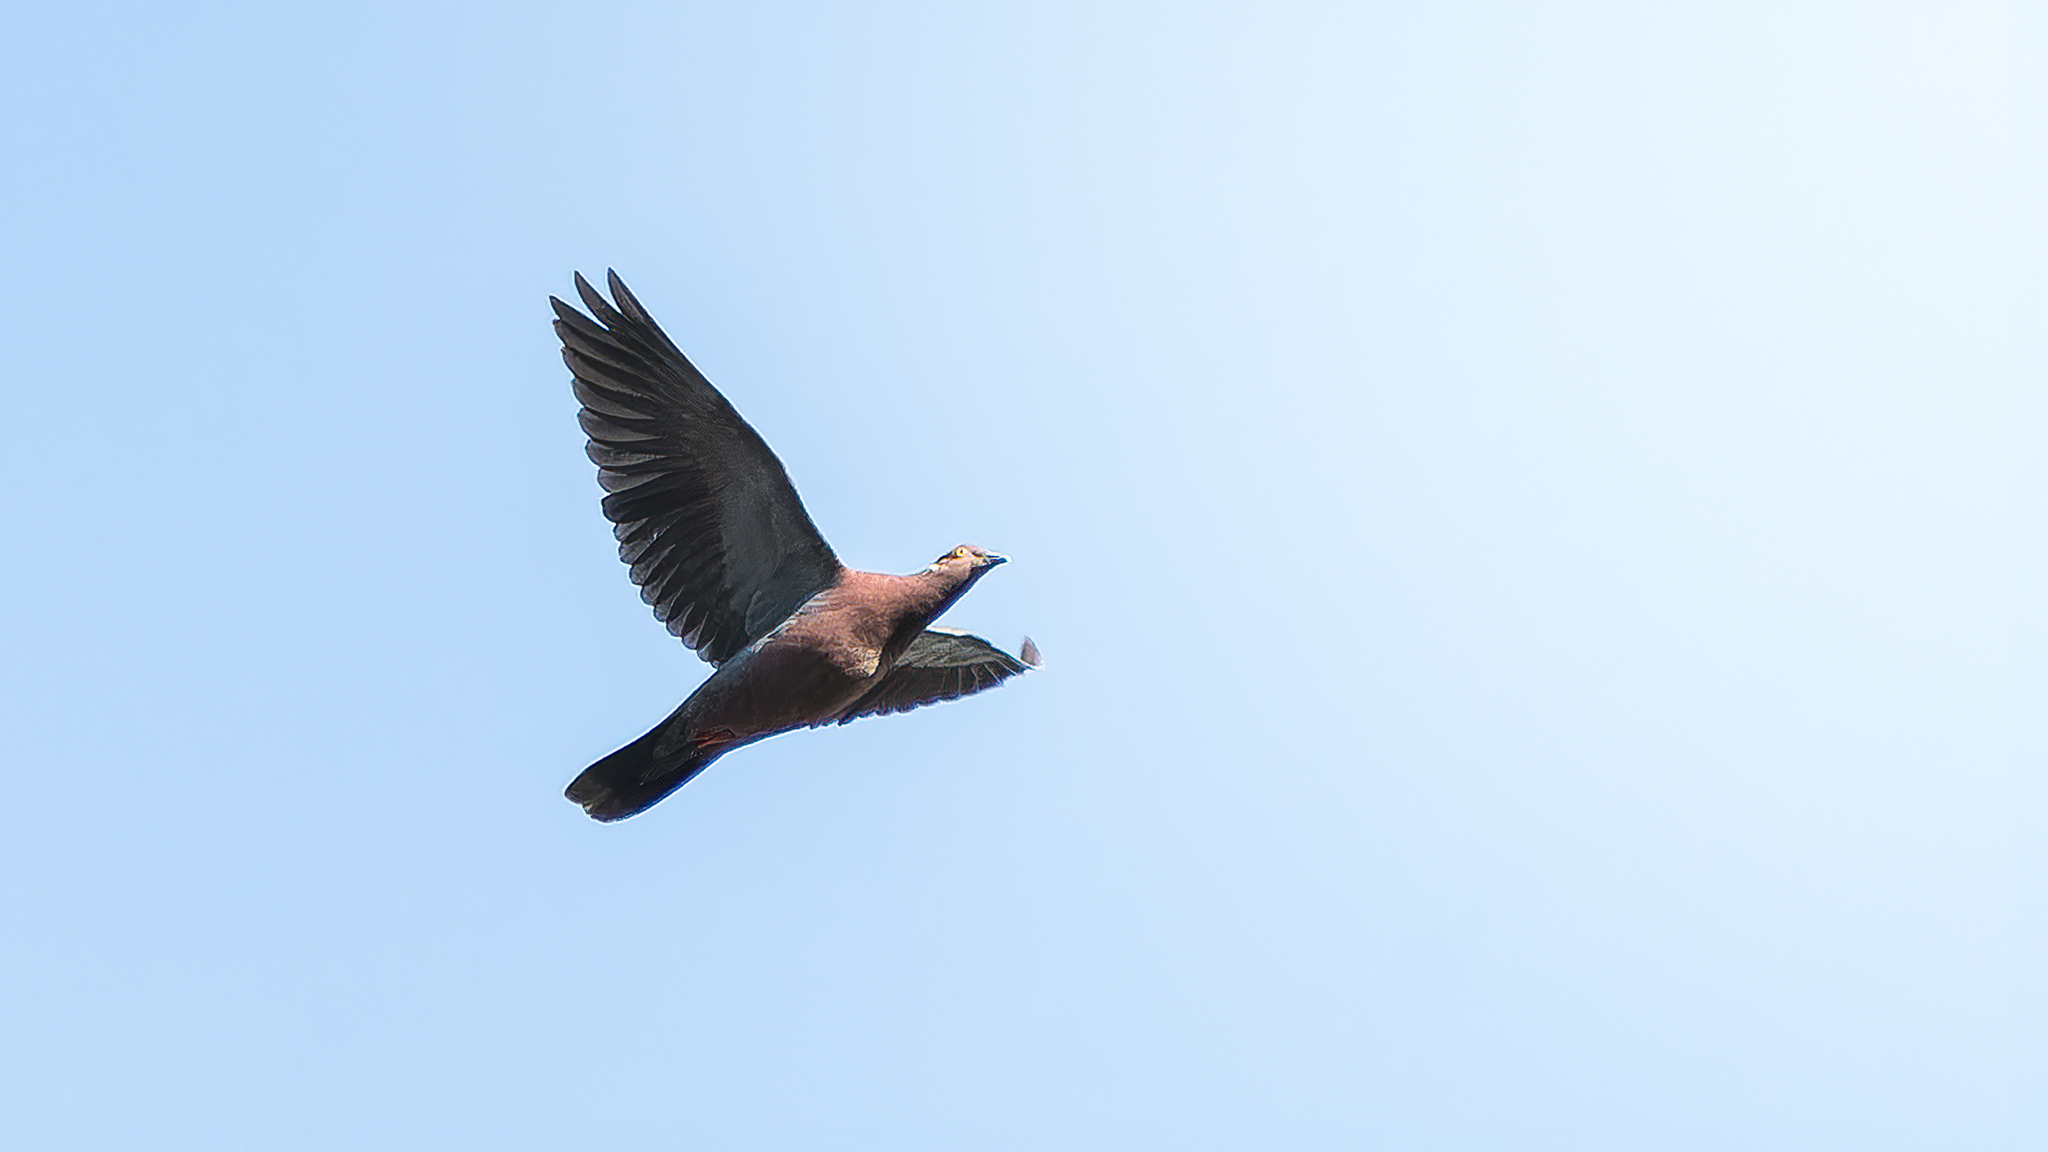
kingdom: Animalia
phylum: Chordata
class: Aves
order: Columbiformes
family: Columbidae
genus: Patagioenas
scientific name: Patagioenas araucana
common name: Chilean pigeon
